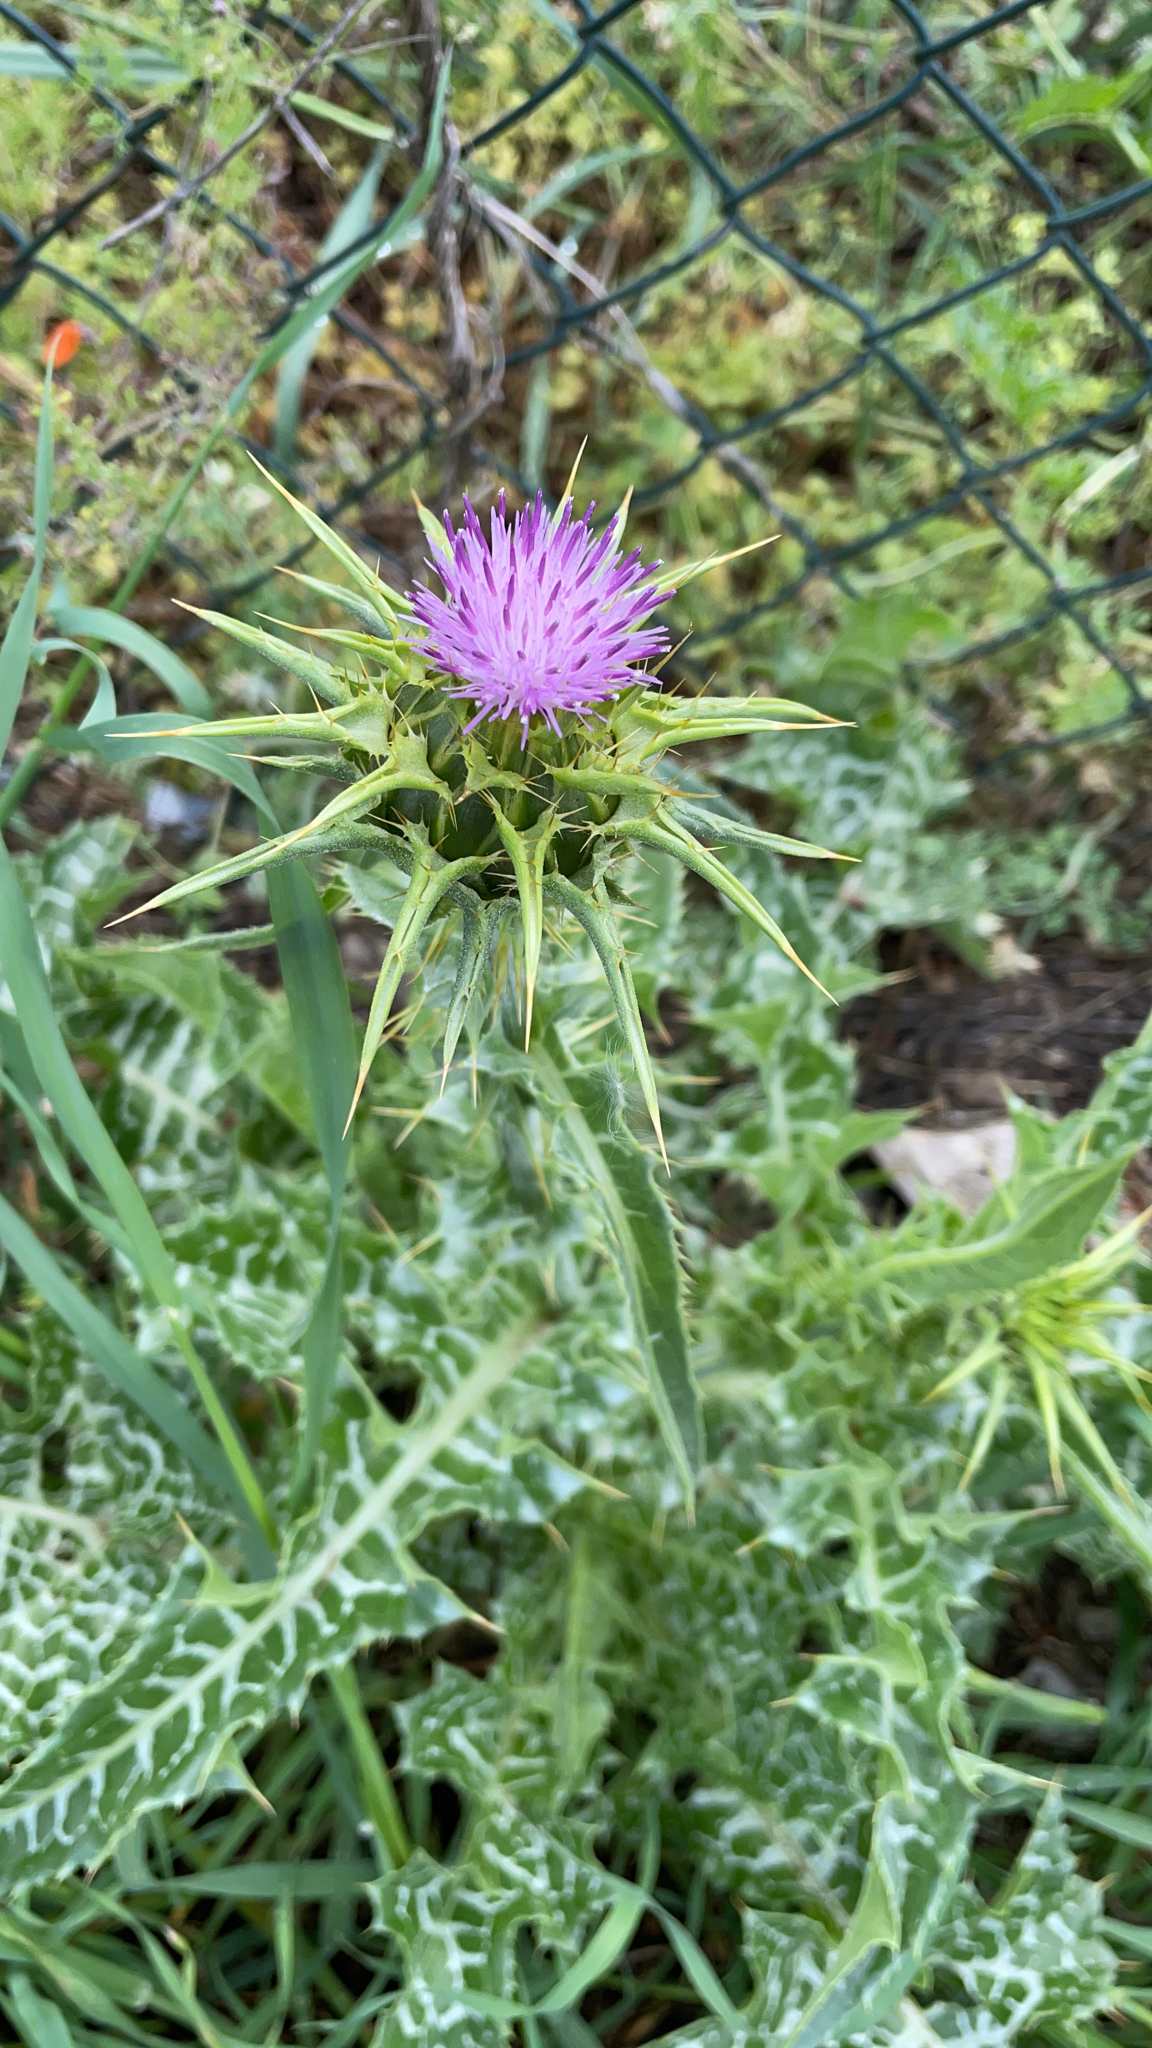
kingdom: Plantae
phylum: Tracheophyta
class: Magnoliopsida
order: Asterales
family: Asteraceae
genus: Silybum
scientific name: Silybum marianum
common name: Milk thistle
